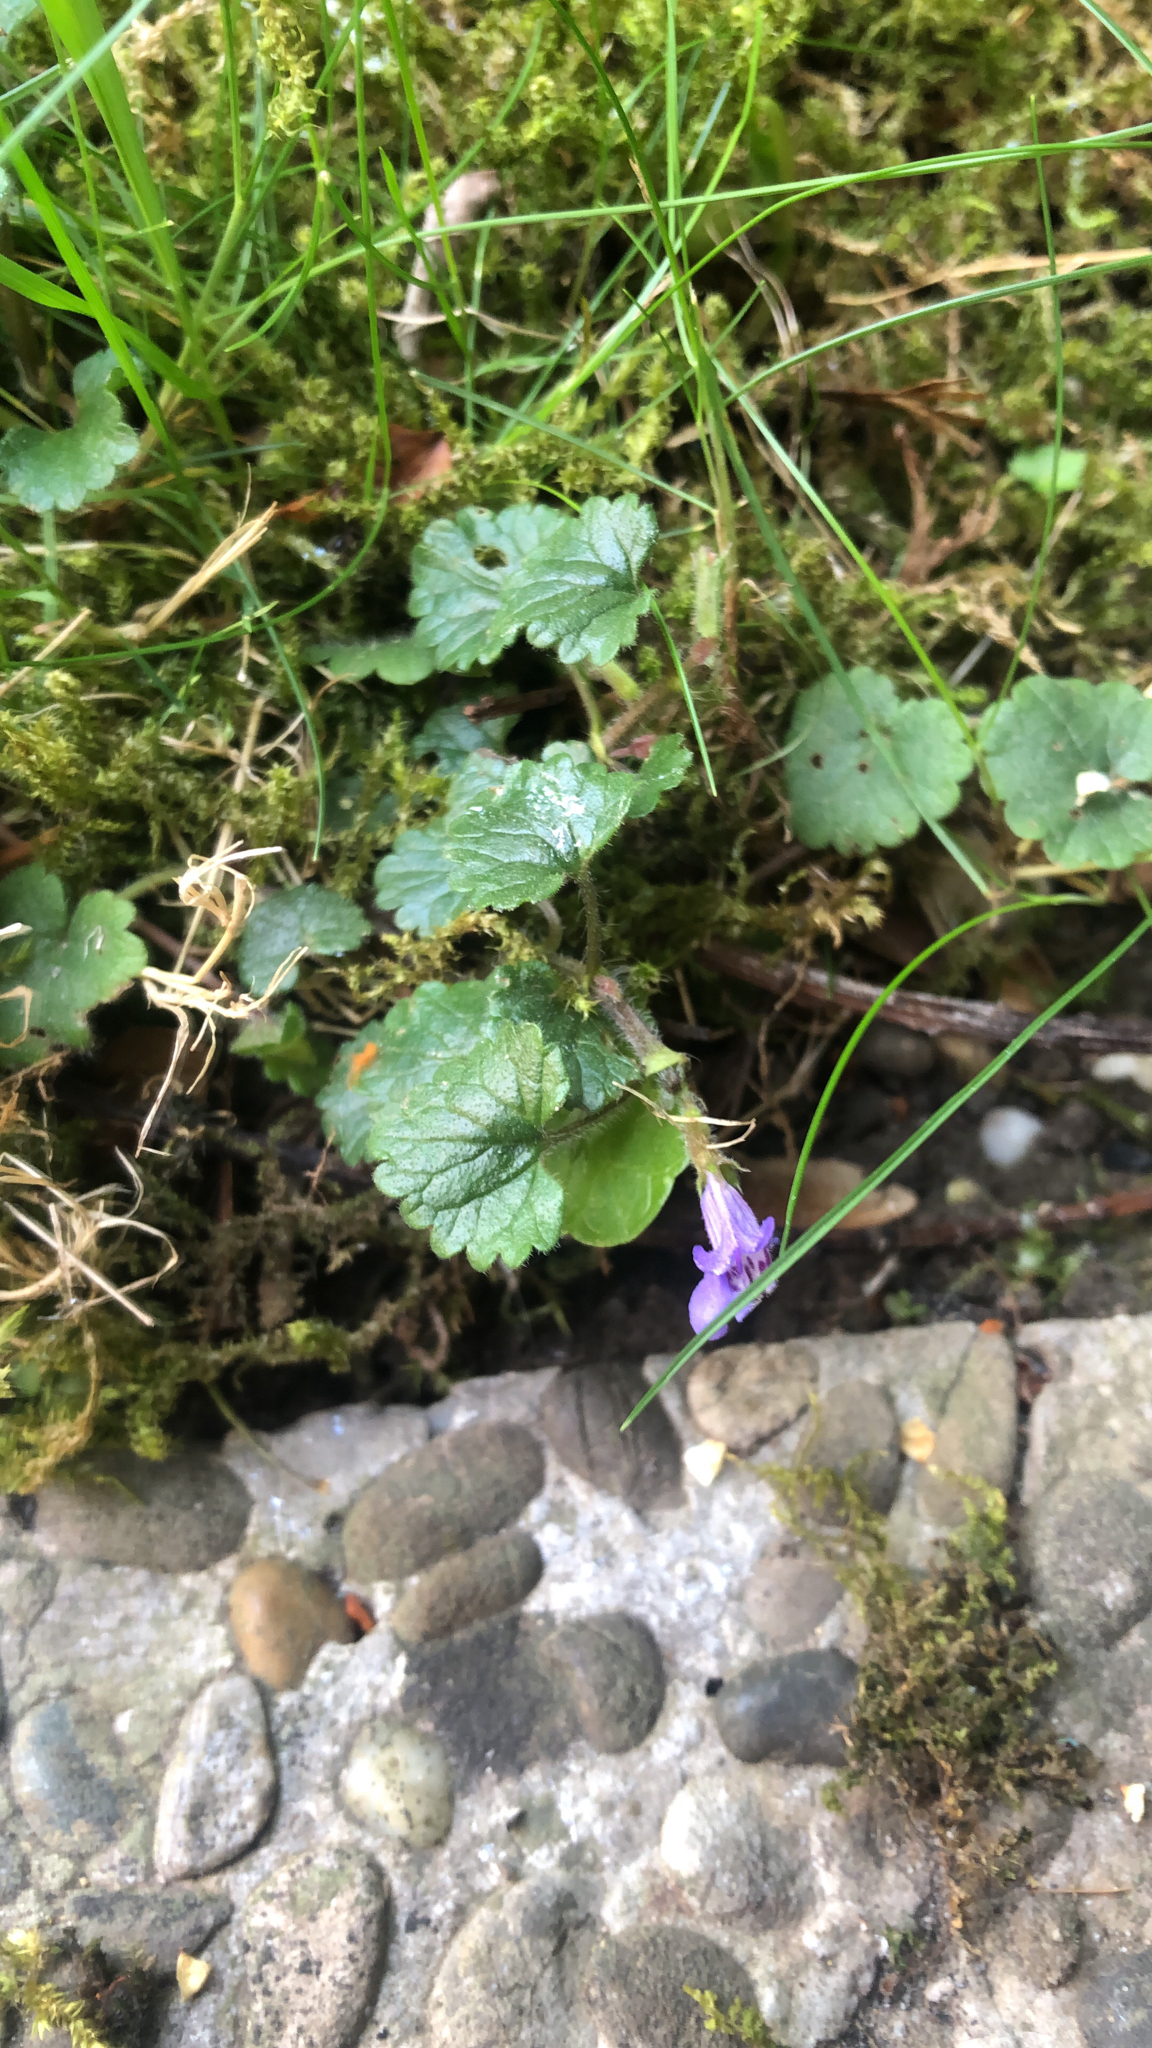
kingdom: Plantae
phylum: Tracheophyta
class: Magnoliopsida
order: Lamiales
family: Lamiaceae
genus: Glechoma
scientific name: Glechoma hederacea
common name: Ground ivy
